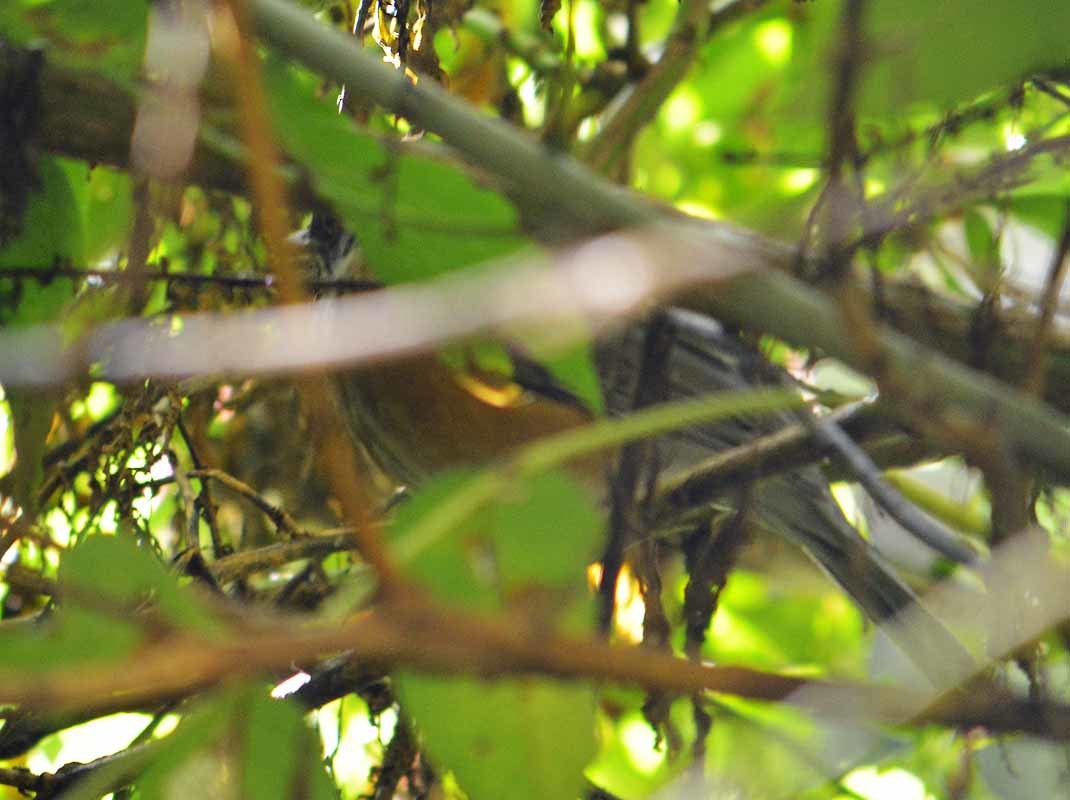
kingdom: Animalia
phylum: Chordata
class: Aves
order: Passeriformes
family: Turdidae
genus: Turdus
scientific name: Turdus rufopalliatus
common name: Rufous-backed robin
